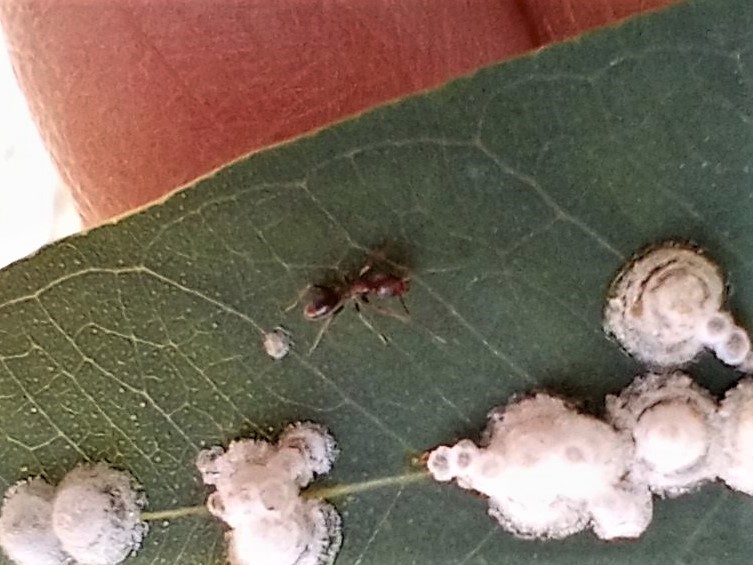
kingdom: Animalia
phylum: Arthropoda
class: Insecta
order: Hymenoptera
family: Formicidae
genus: Linepithema
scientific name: Linepithema humile
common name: Argentine ant
